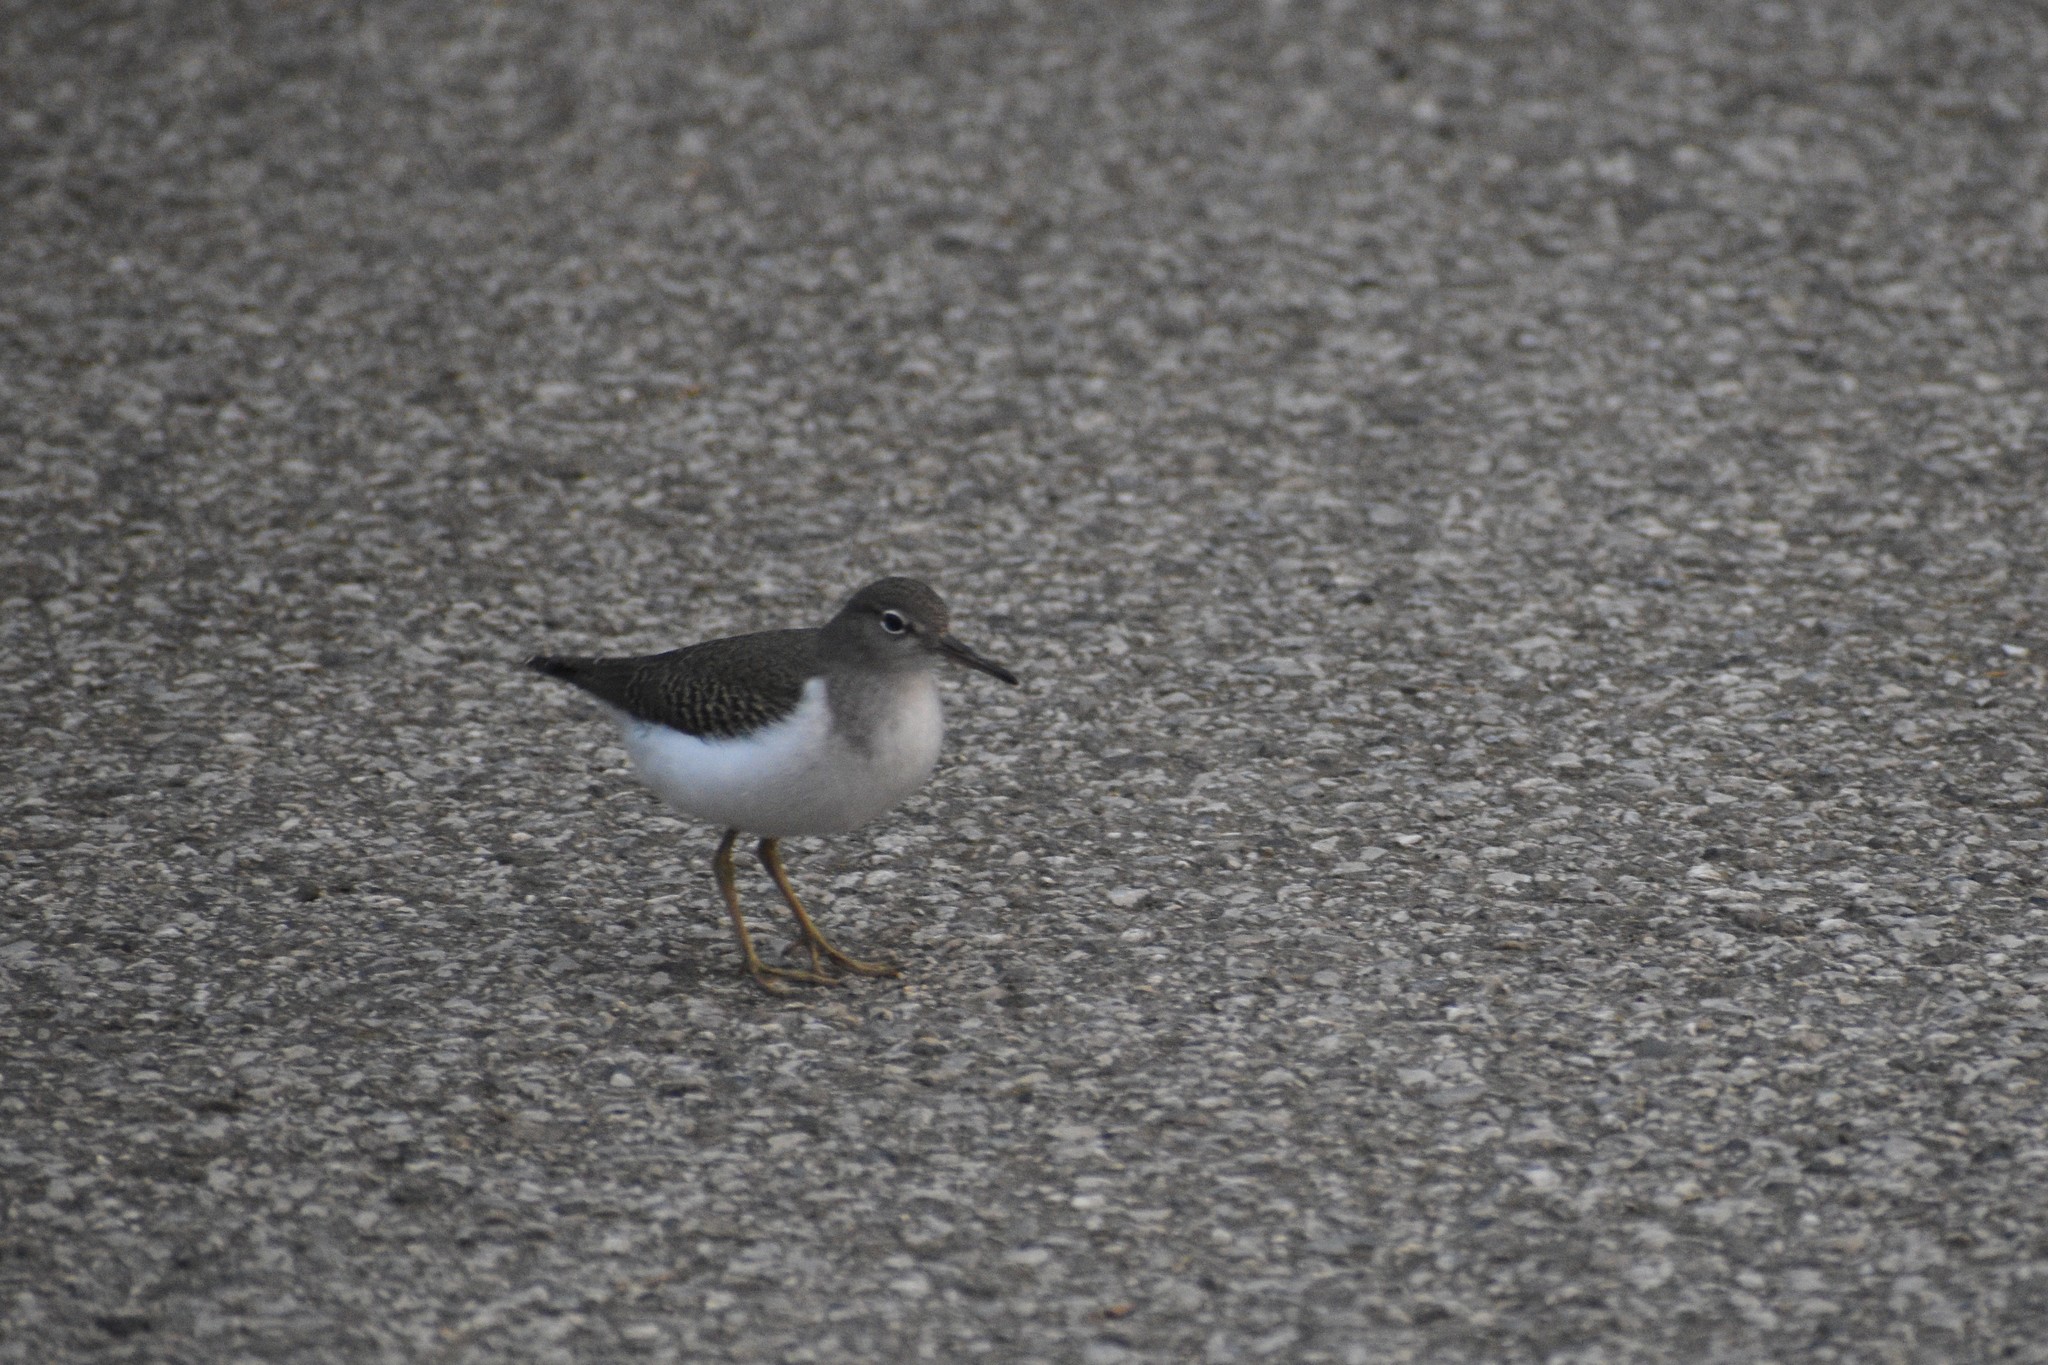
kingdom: Animalia
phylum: Chordata
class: Aves
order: Charadriiformes
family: Scolopacidae
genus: Actitis
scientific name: Actitis macularius
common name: Spotted sandpiper
